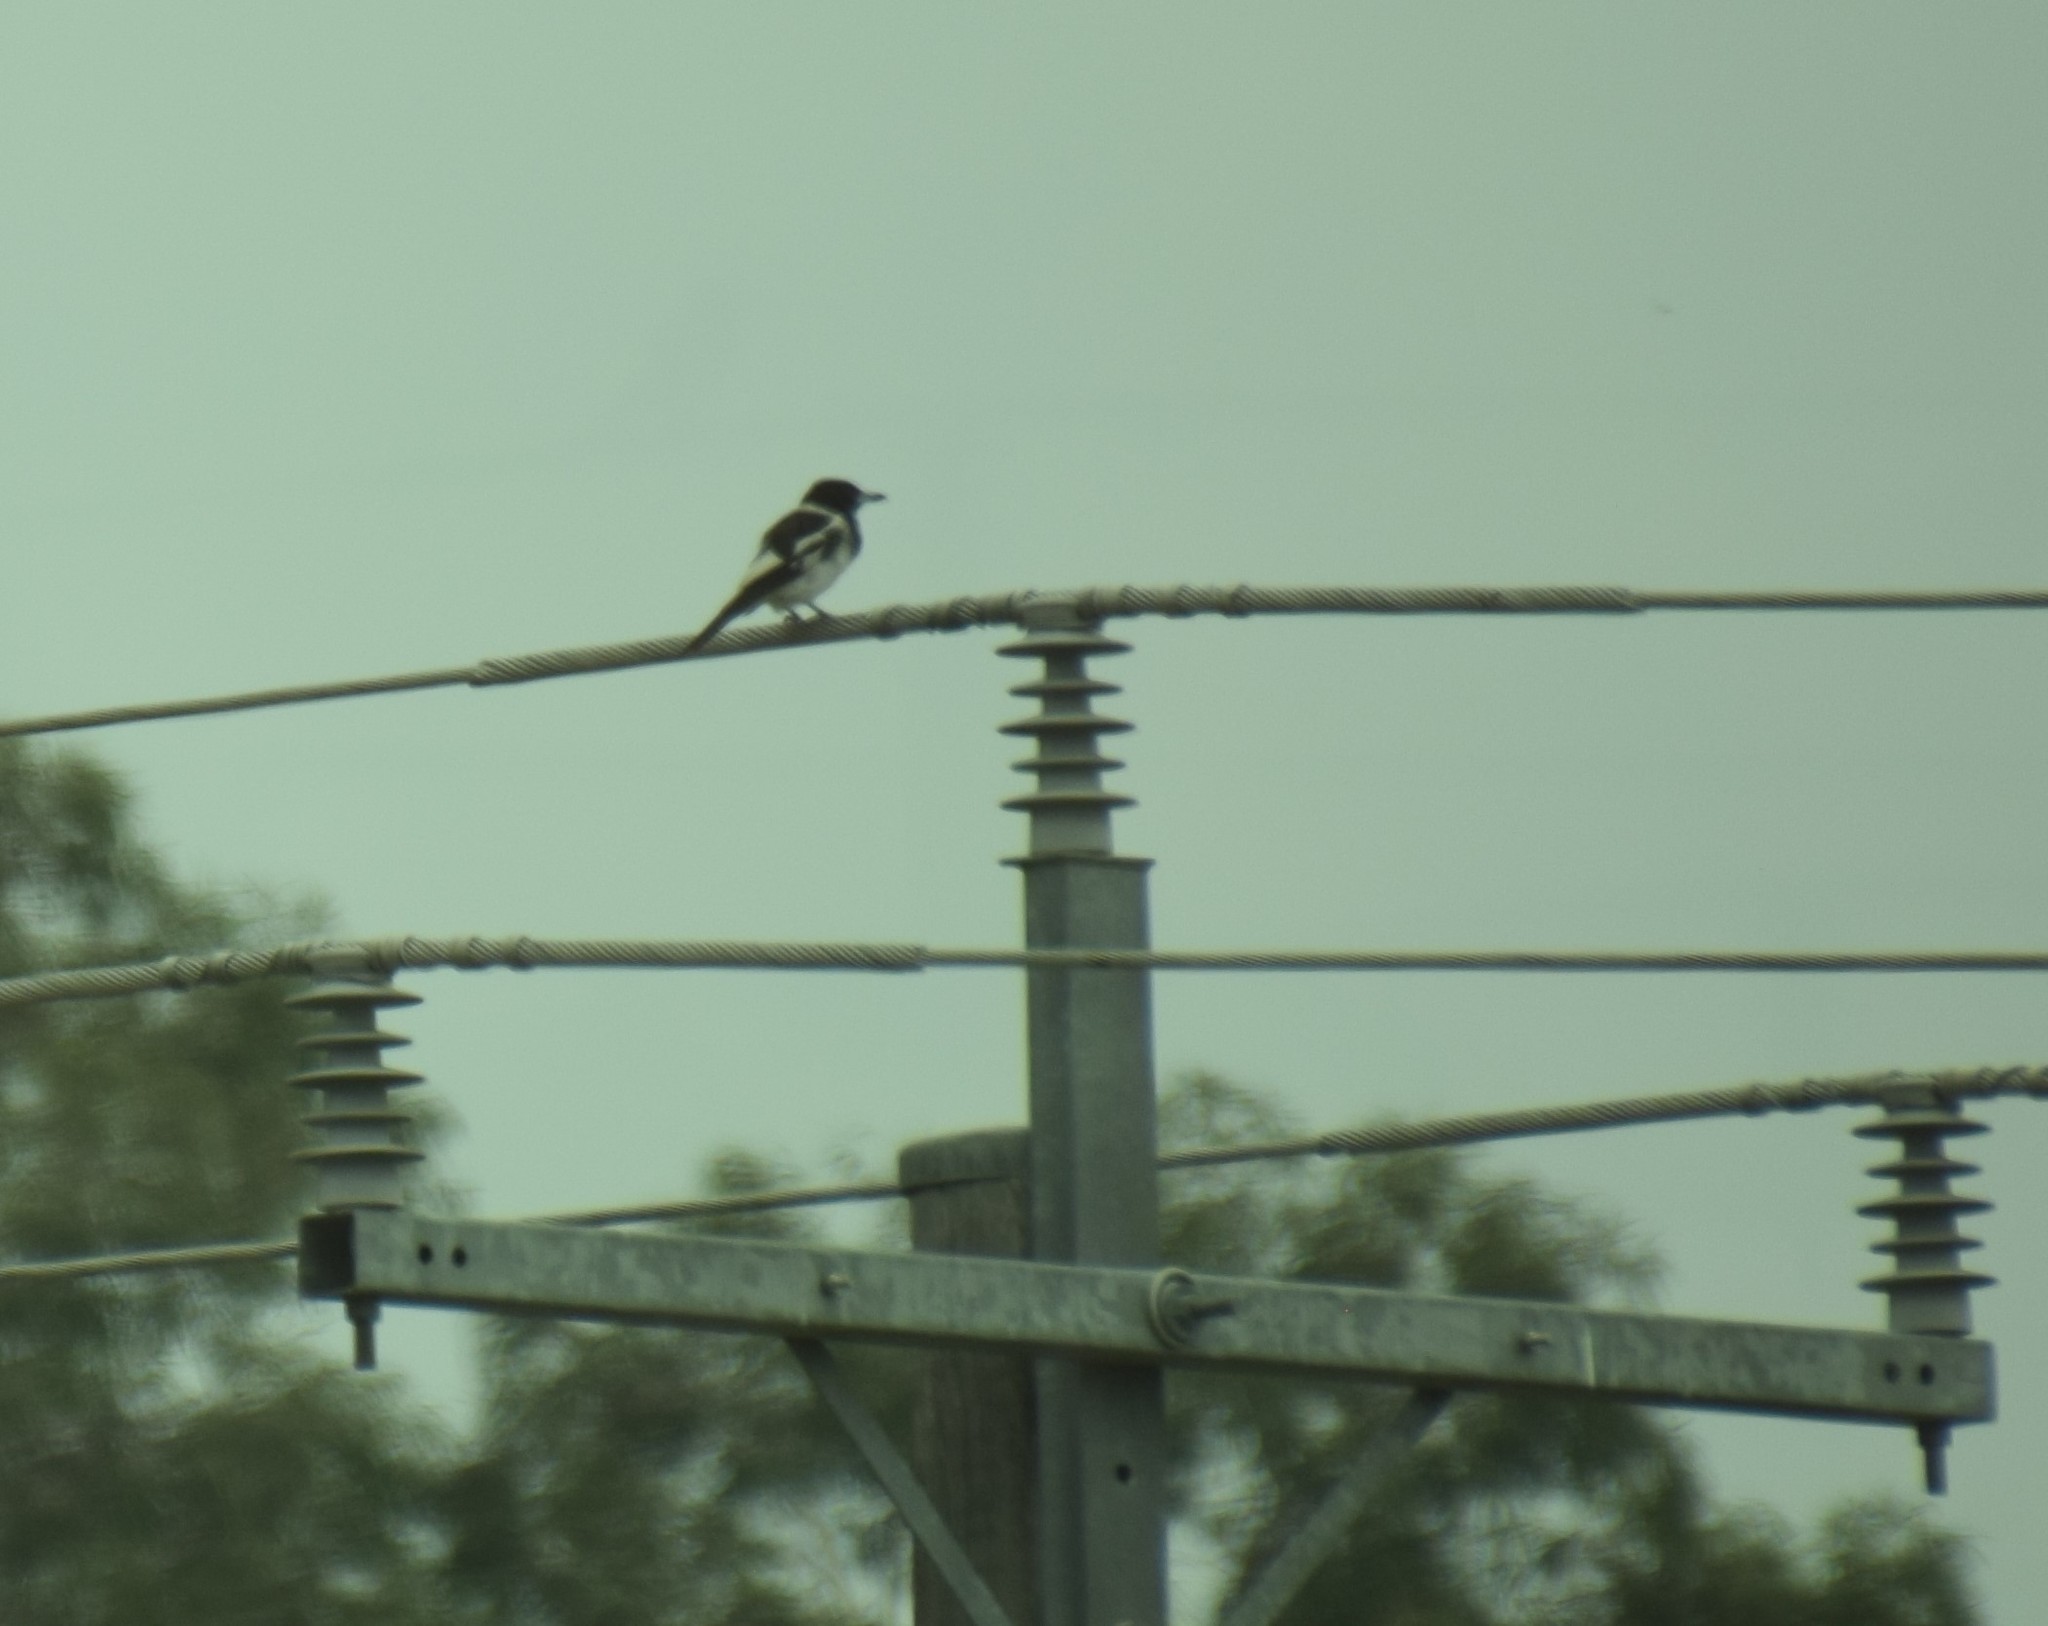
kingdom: Animalia
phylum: Chordata
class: Aves
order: Passeriformes
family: Cracticidae
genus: Cracticus
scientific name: Cracticus nigrogularis
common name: Pied butcherbird
